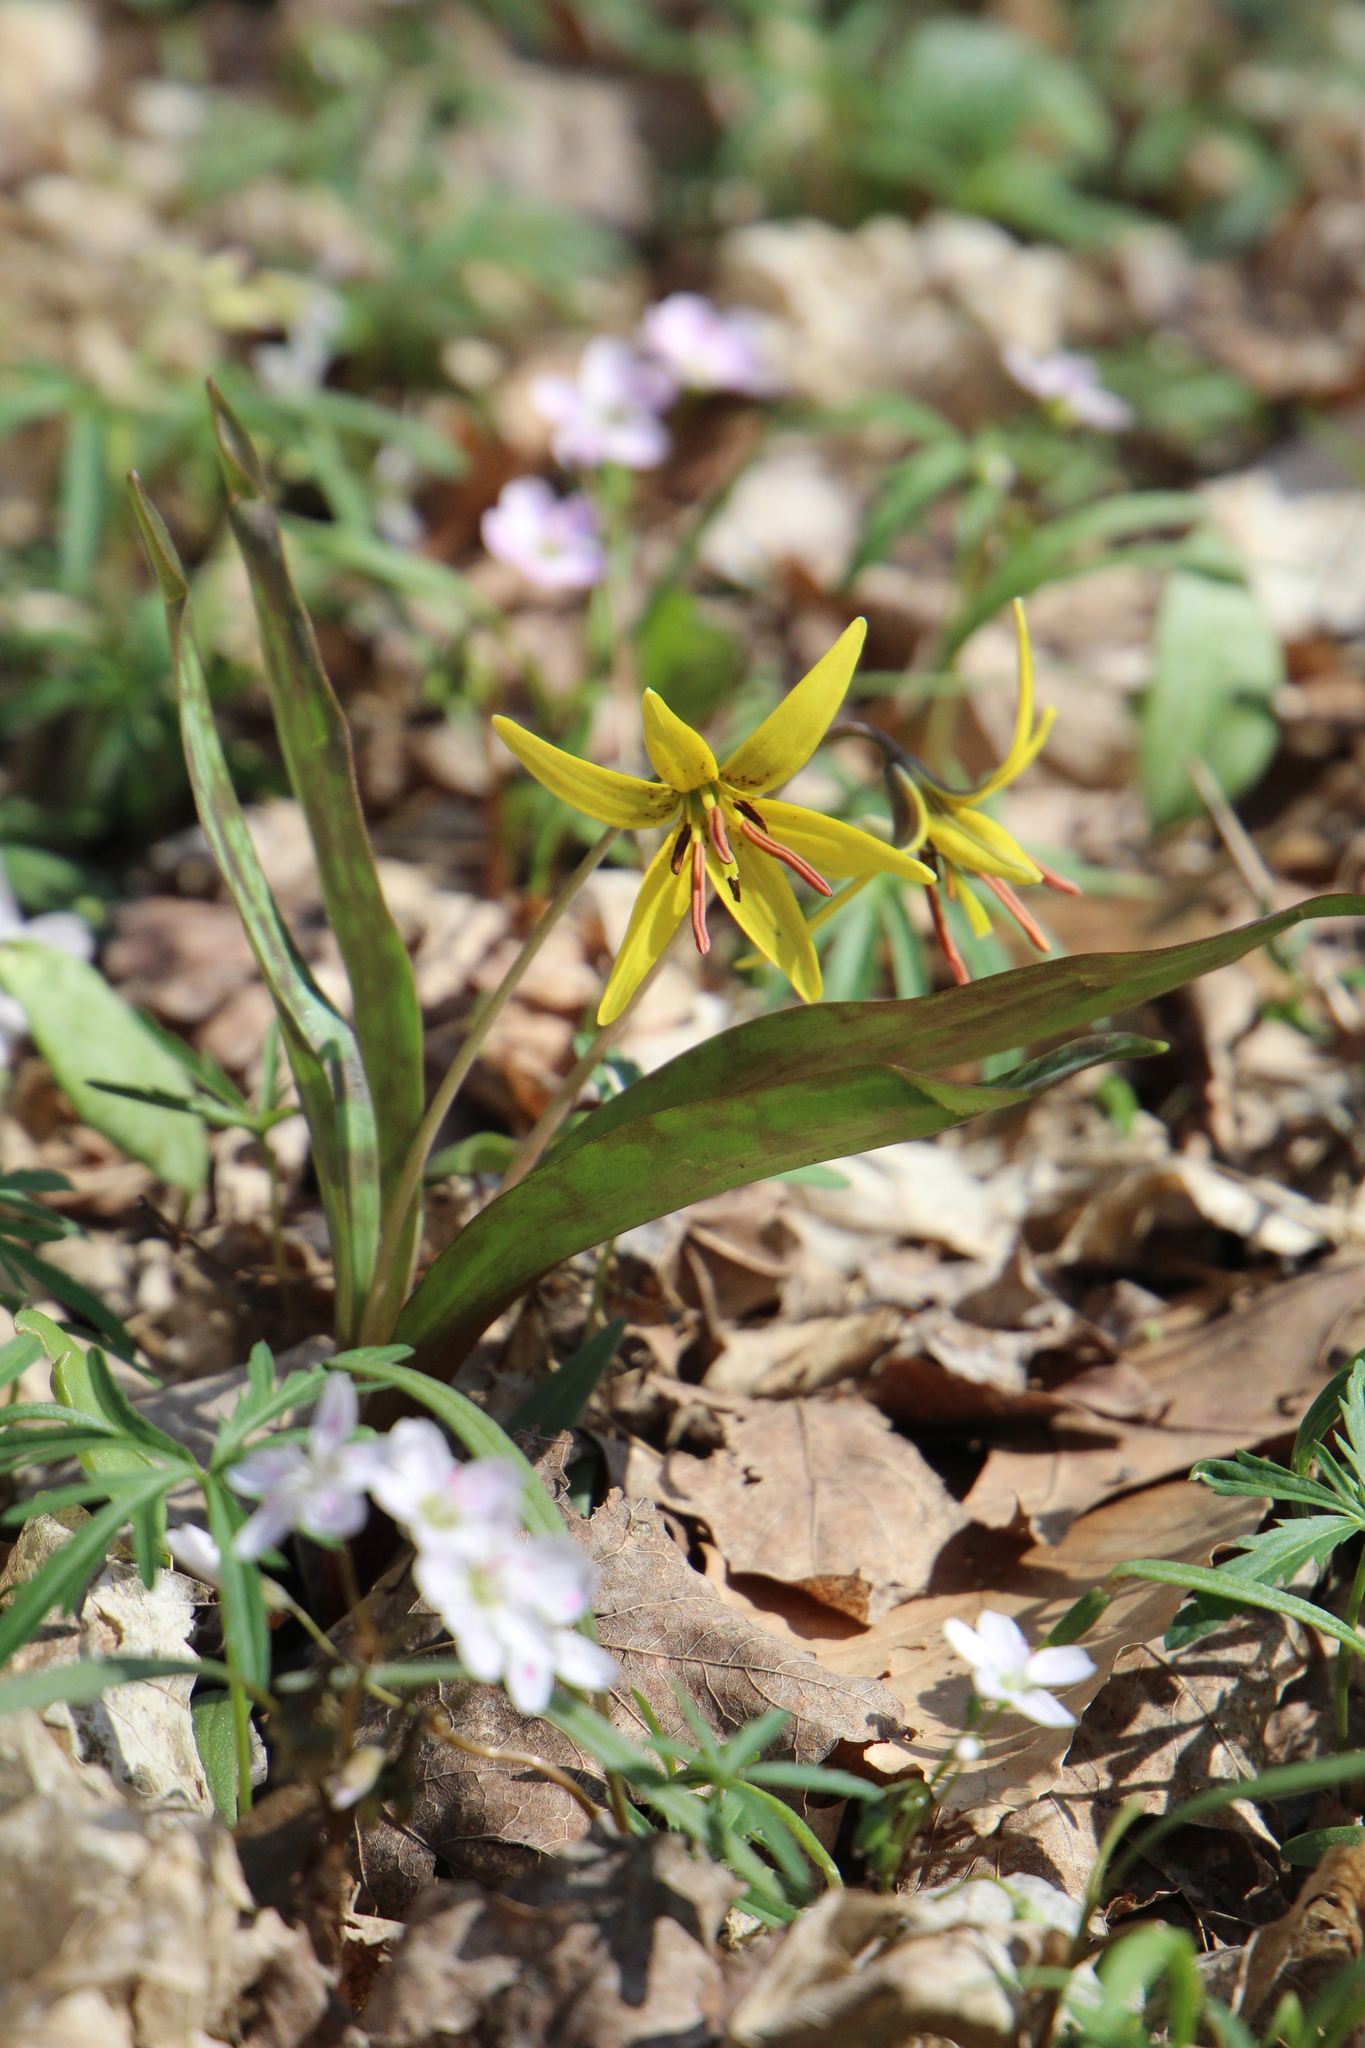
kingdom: Plantae
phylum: Tracheophyta
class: Liliopsida
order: Liliales
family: Liliaceae
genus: Erythronium
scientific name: Erythronium americanum
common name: Yellow adder's-tongue
